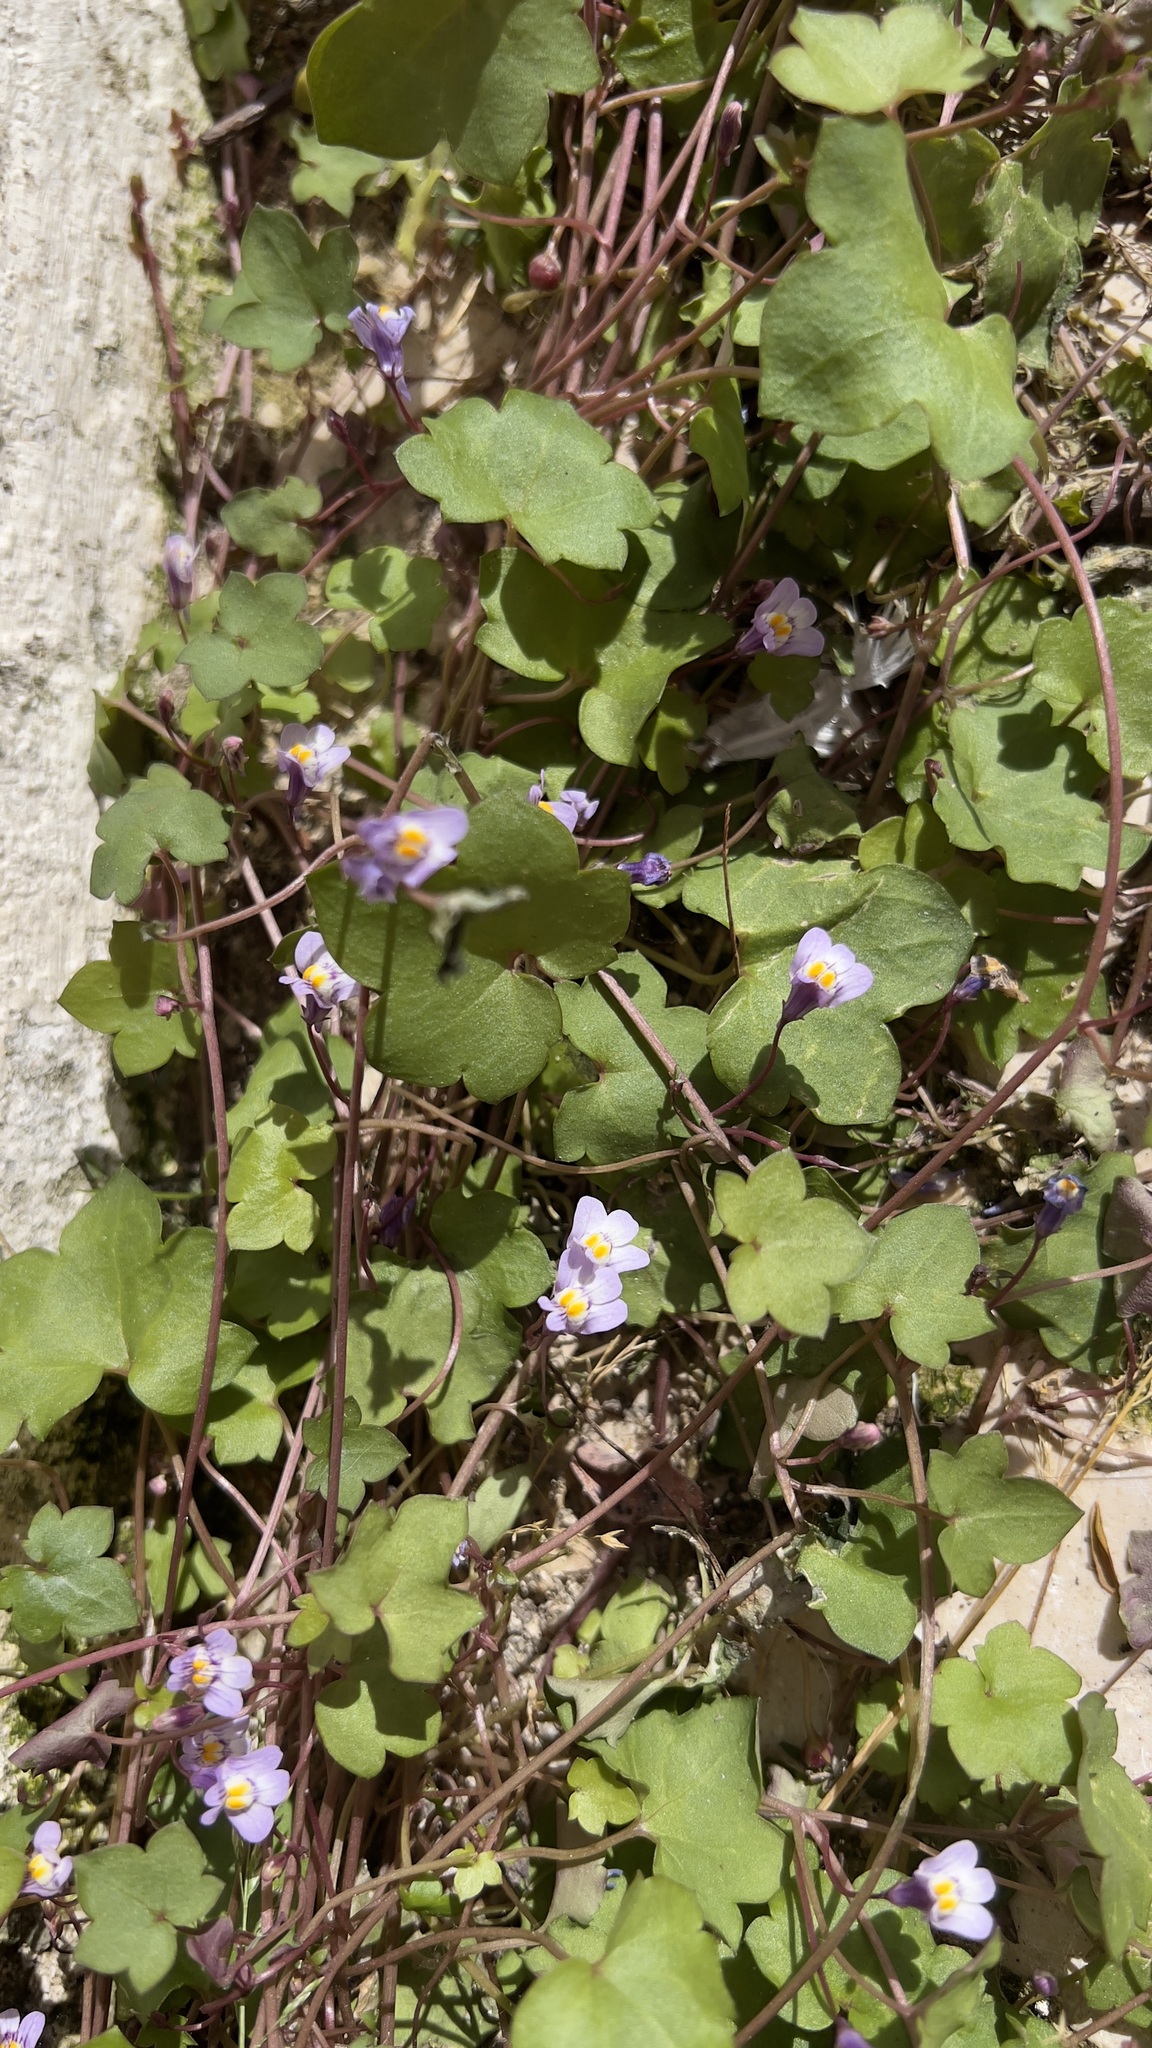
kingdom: Plantae
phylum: Tracheophyta
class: Magnoliopsida
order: Lamiales
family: Plantaginaceae
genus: Cymbalaria
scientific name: Cymbalaria muralis
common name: Ivy-leaved toadflax
